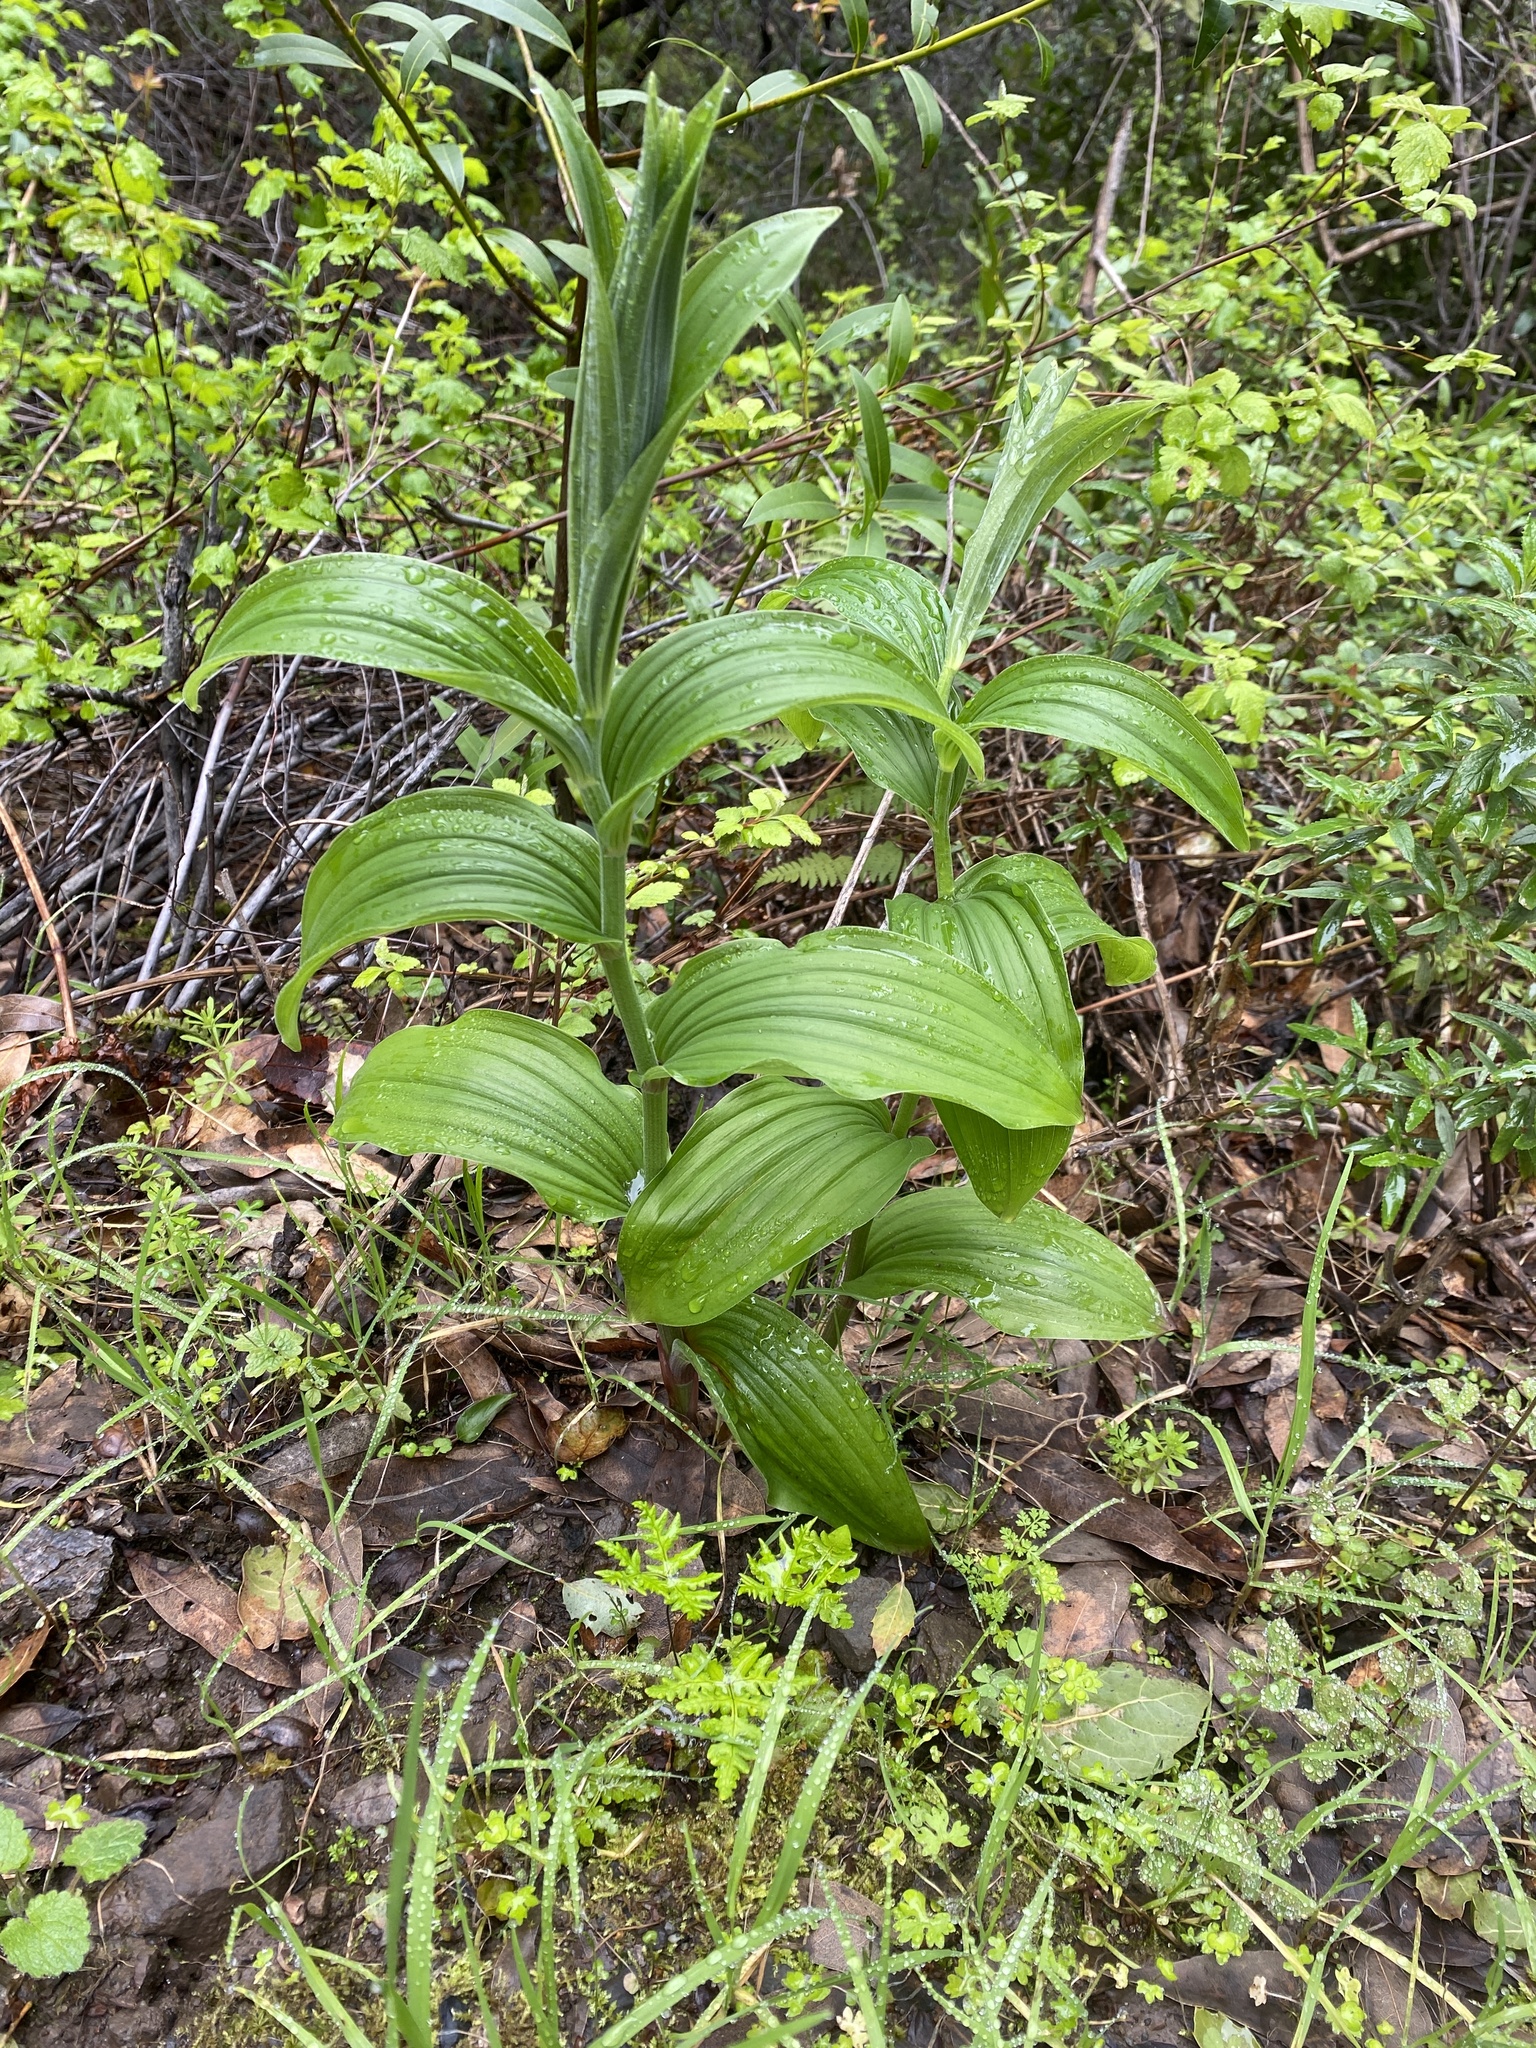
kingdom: Plantae
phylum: Tracheophyta
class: Liliopsida
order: Asparagales
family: Asparagaceae
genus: Maianthemum
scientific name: Maianthemum racemosum
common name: False spikenard
